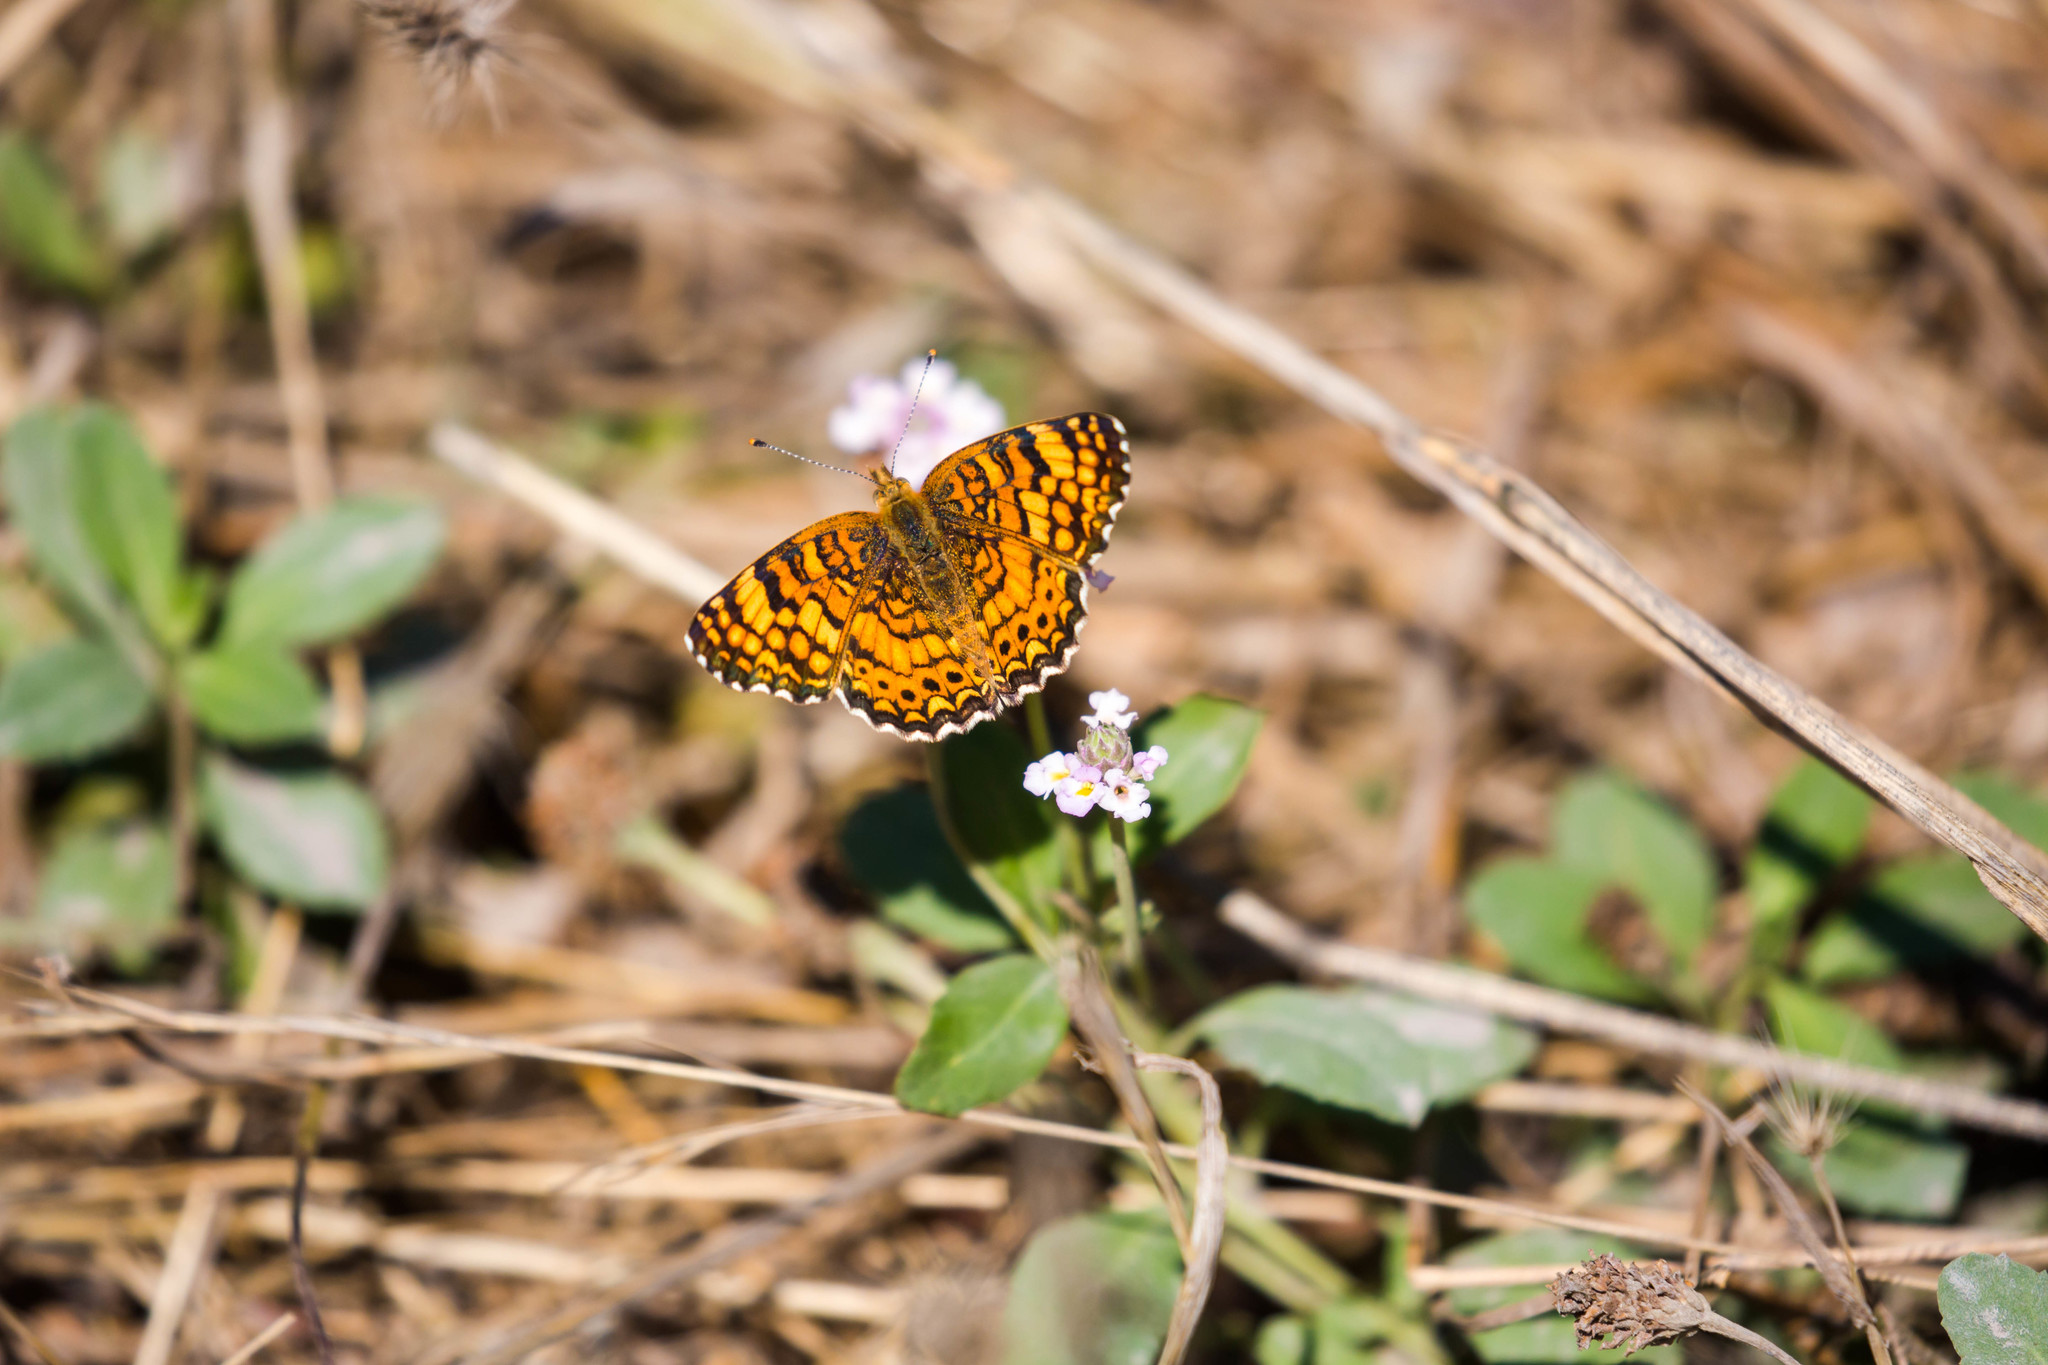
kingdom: Animalia
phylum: Arthropoda
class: Insecta
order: Lepidoptera
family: Nymphalidae
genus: Eresia
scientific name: Eresia aveyrona
